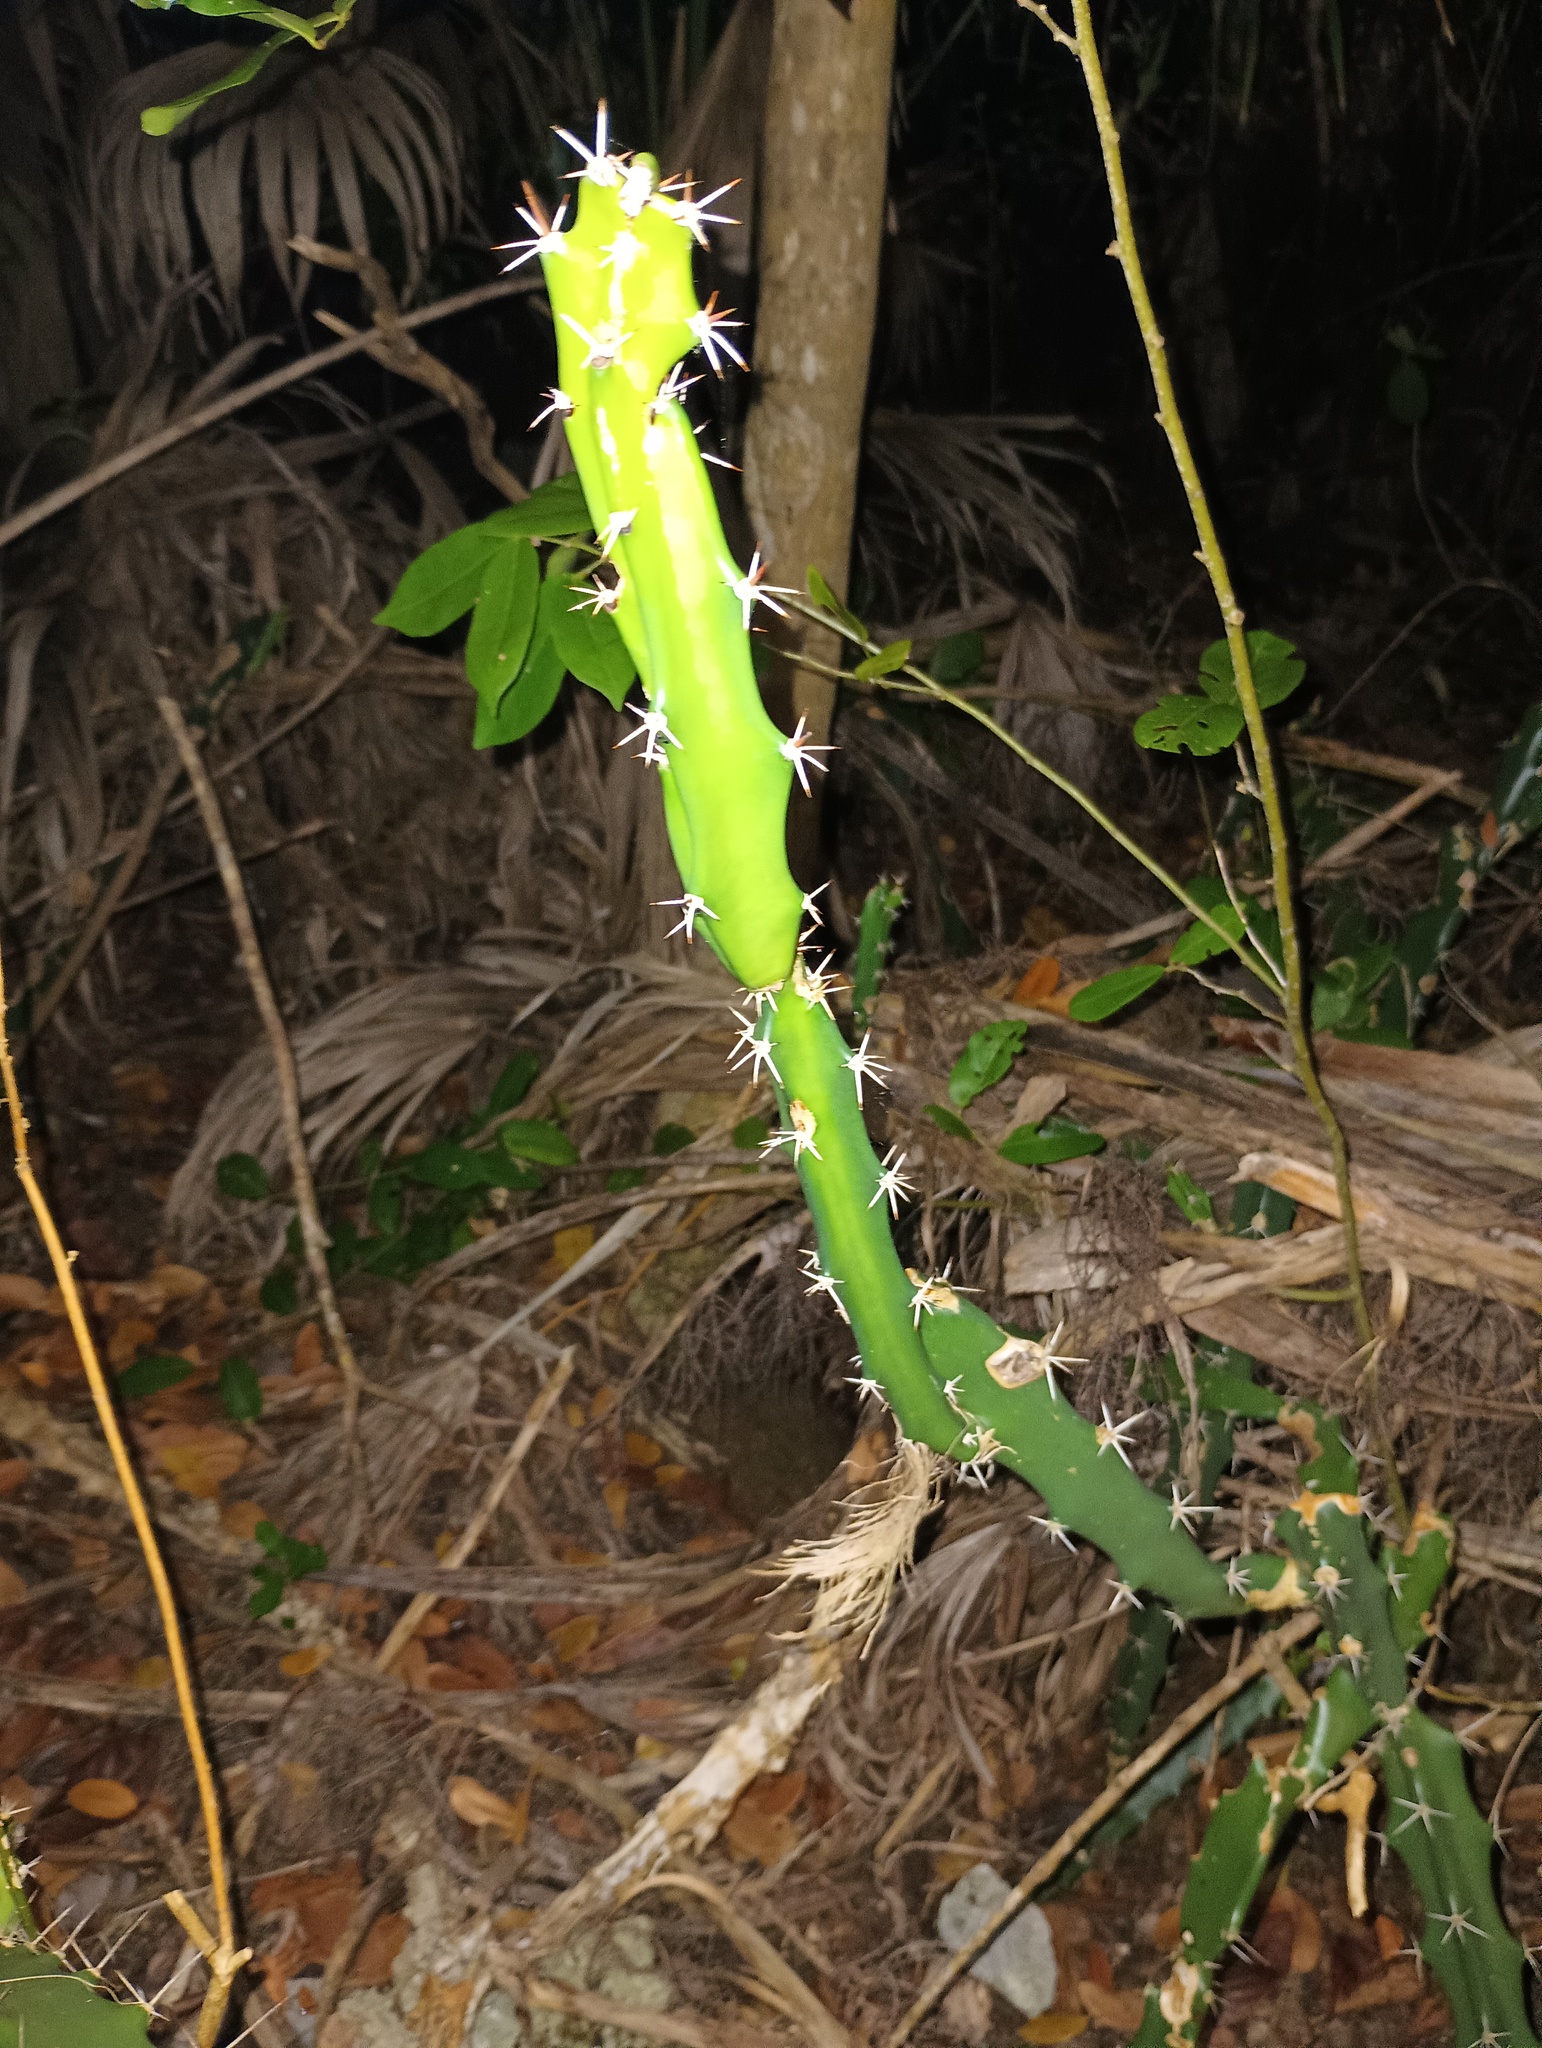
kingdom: Plantae
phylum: Tracheophyta
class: Magnoliopsida
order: Caryophyllales
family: Cactaceae
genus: Acanthocereus
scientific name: Acanthocereus tetragonus
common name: Triangle cactus
